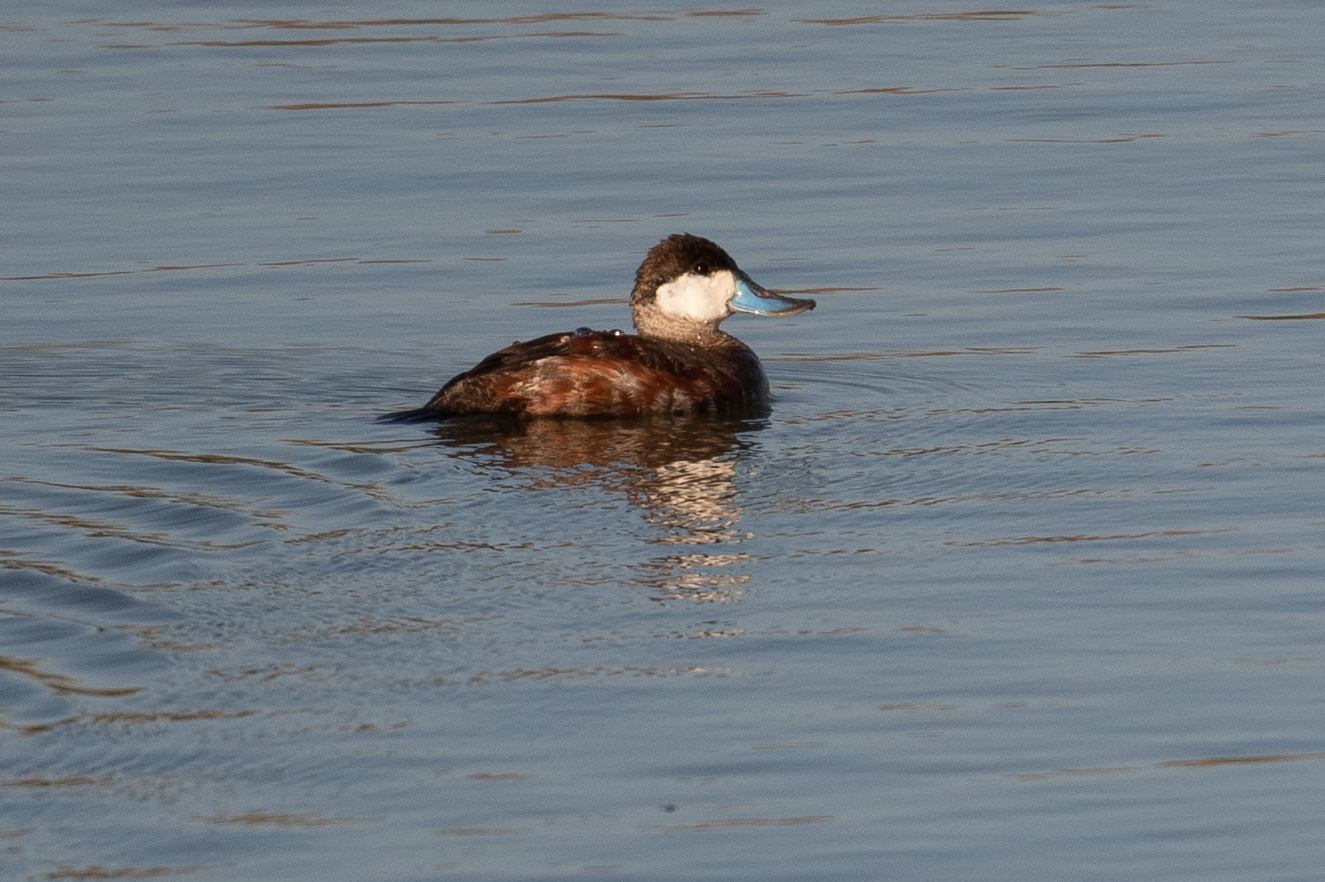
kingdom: Animalia
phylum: Chordata
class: Aves
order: Anseriformes
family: Anatidae
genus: Oxyura
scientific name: Oxyura jamaicensis
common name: Ruddy duck
